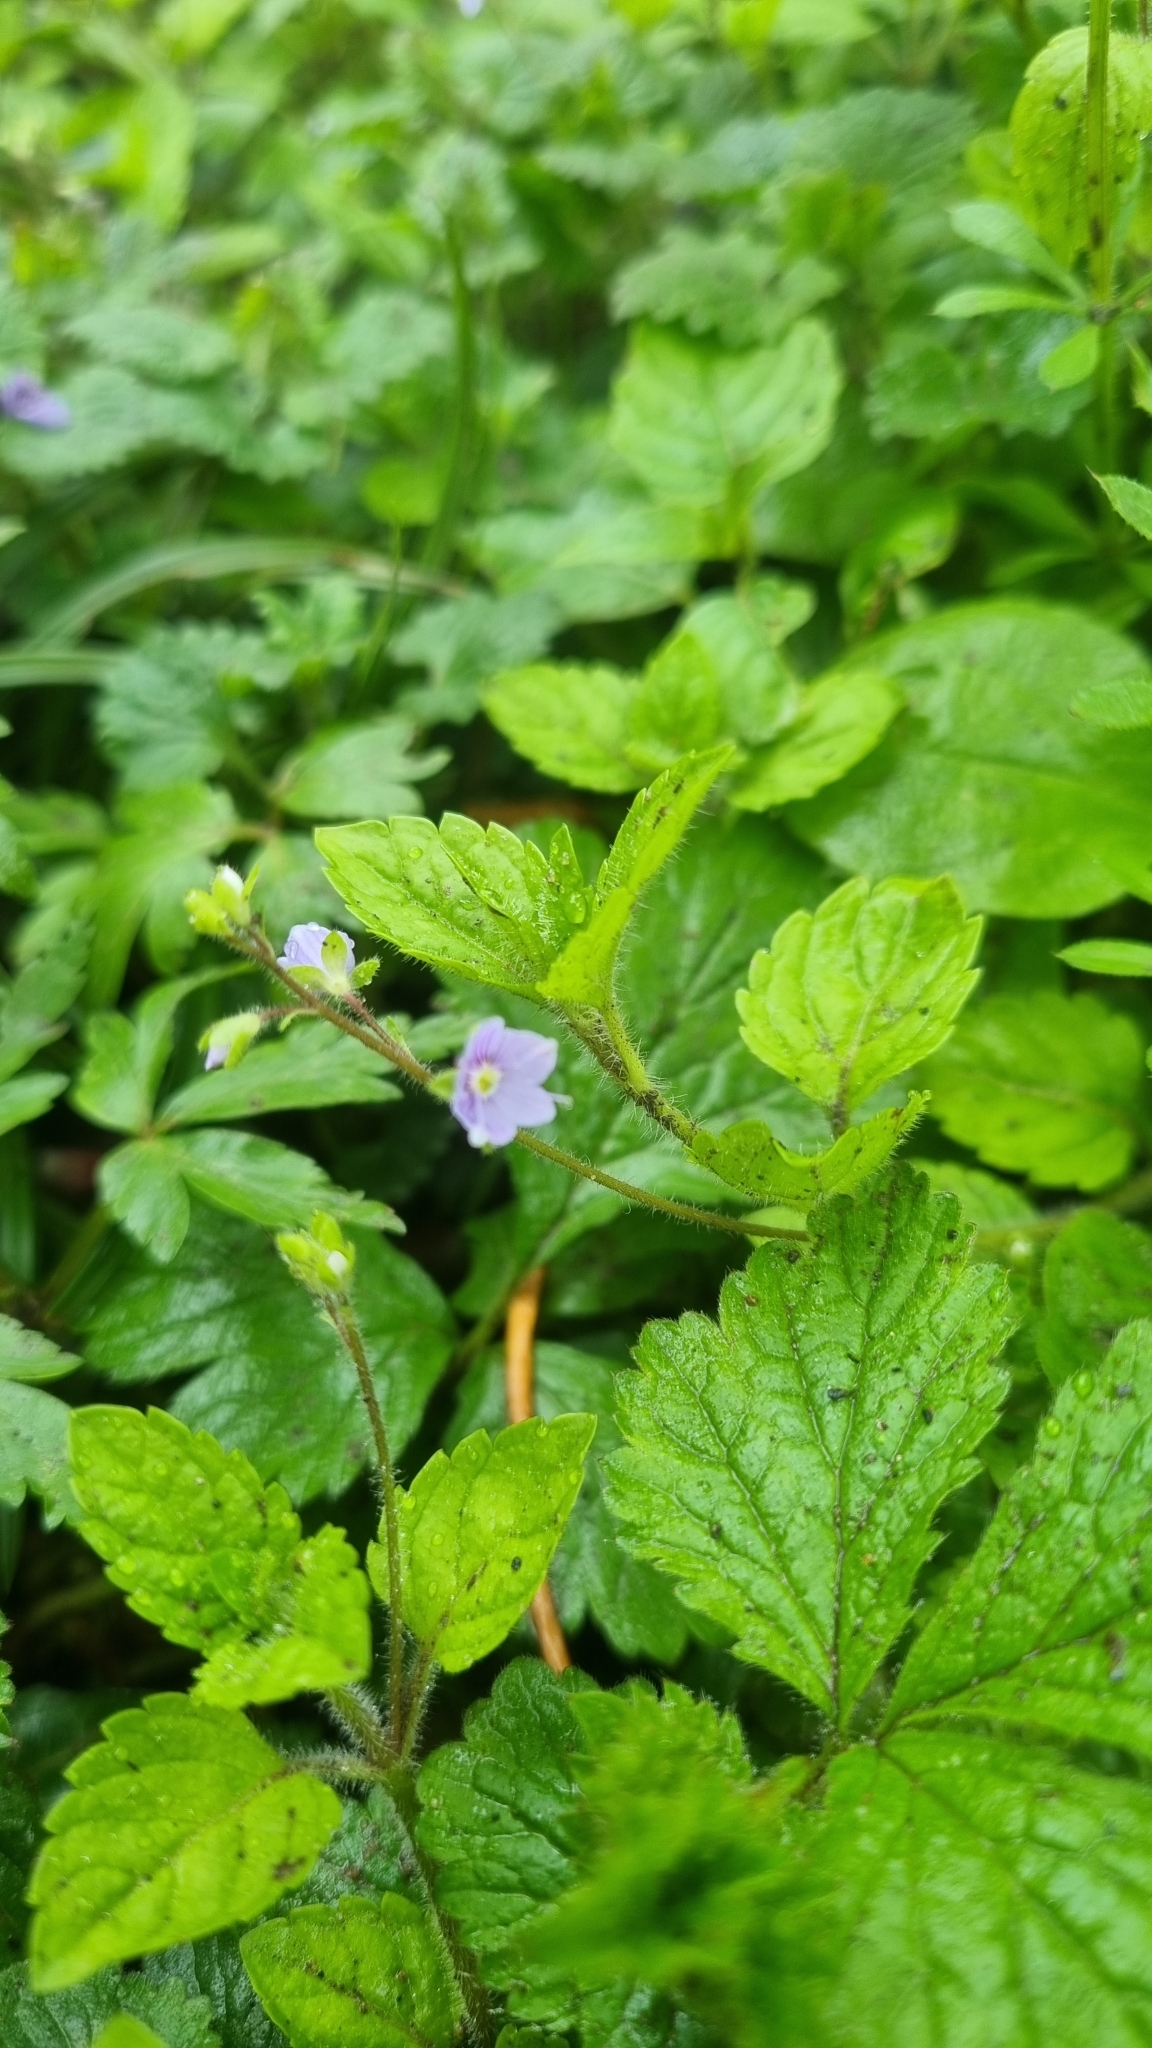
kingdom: Plantae
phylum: Tracheophyta
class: Magnoliopsida
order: Lamiales
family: Plantaginaceae
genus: Veronica
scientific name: Veronica montana
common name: Wood speedwell
